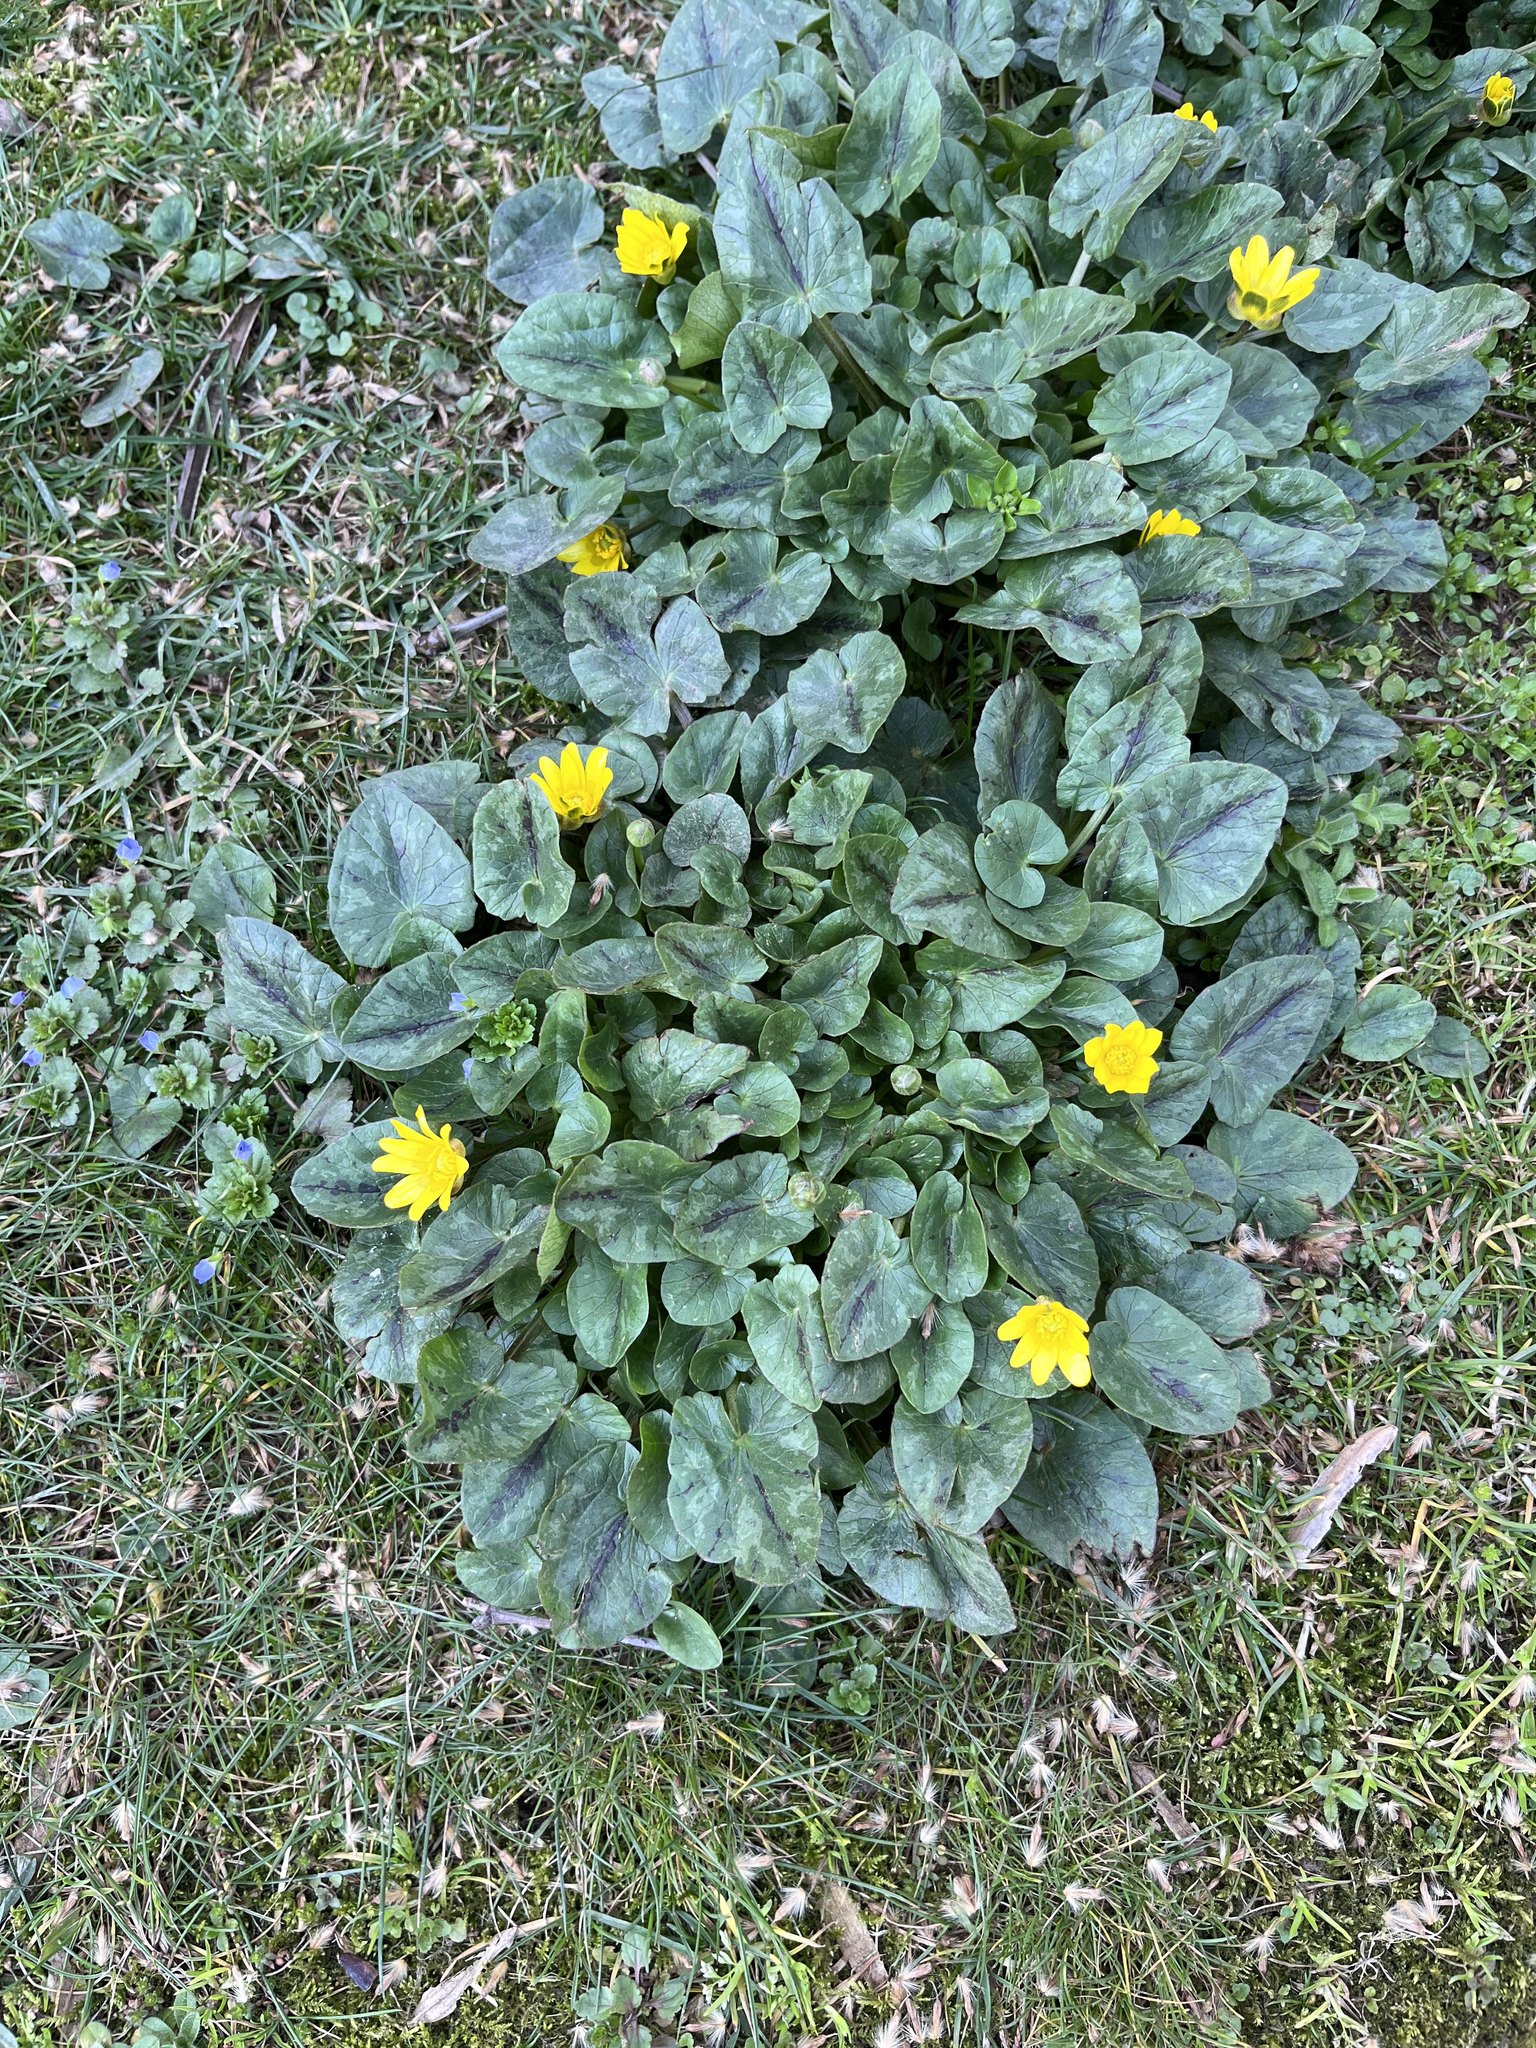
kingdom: Plantae
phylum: Tracheophyta
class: Magnoliopsida
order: Ranunculales
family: Ranunculaceae
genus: Ficaria
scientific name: Ficaria verna
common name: Lesser celandine
